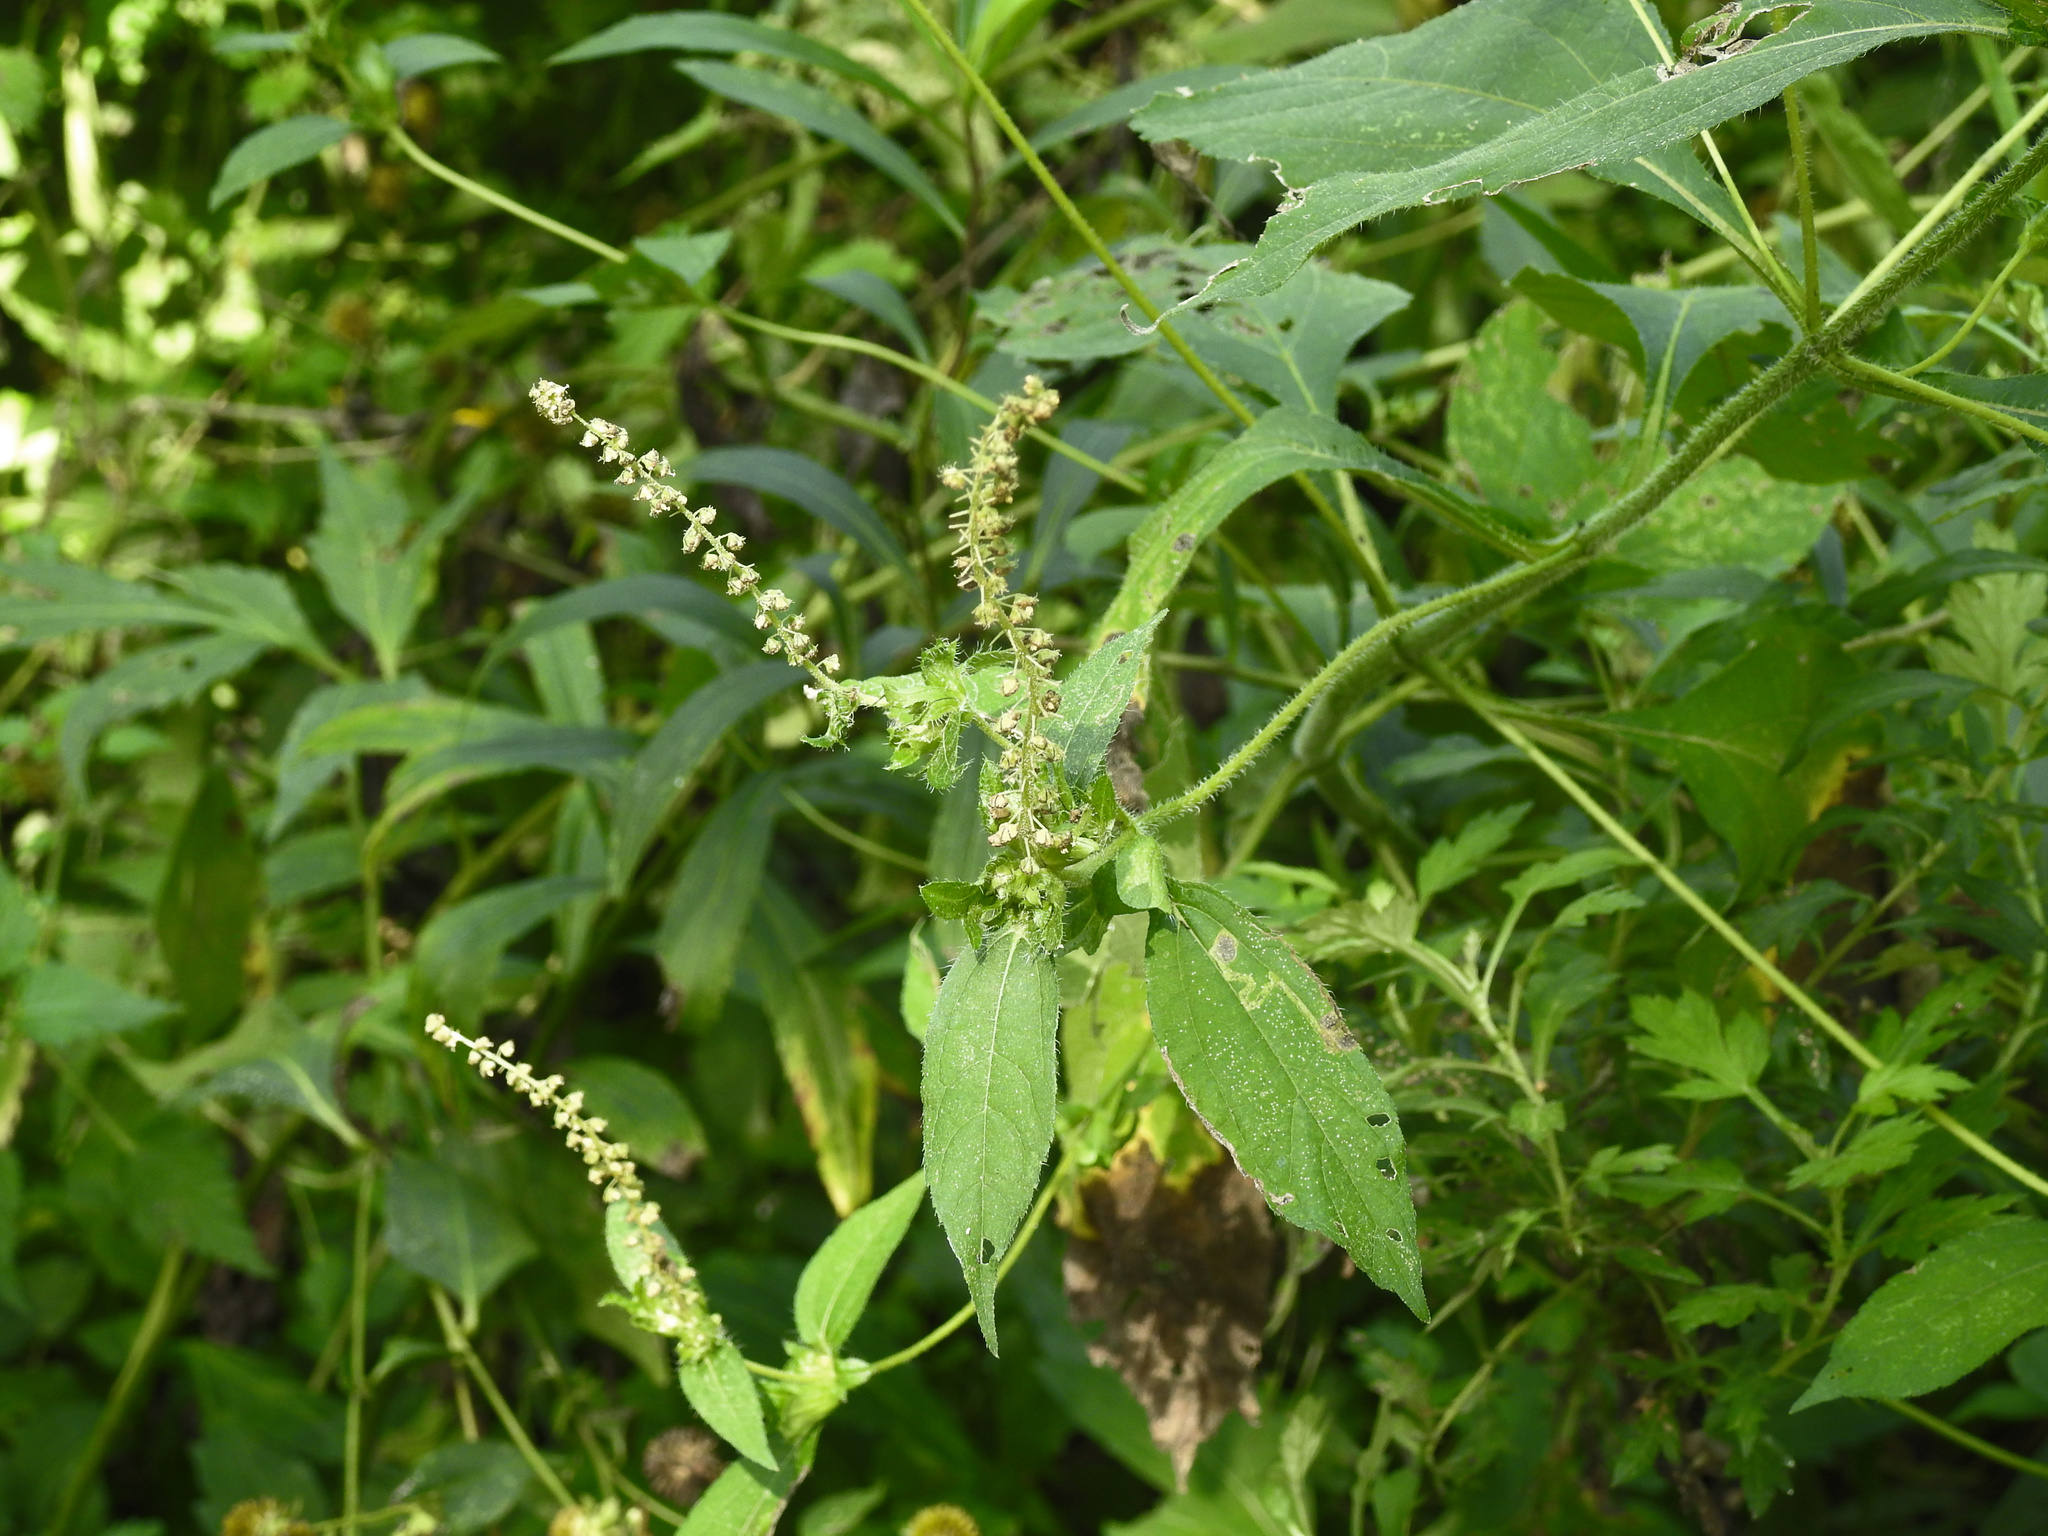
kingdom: Plantae
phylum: Tracheophyta
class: Magnoliopsida
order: Asterales
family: Asteraceae
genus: Ambrosia
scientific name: Ambrosia trifida
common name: Giant ragweed
